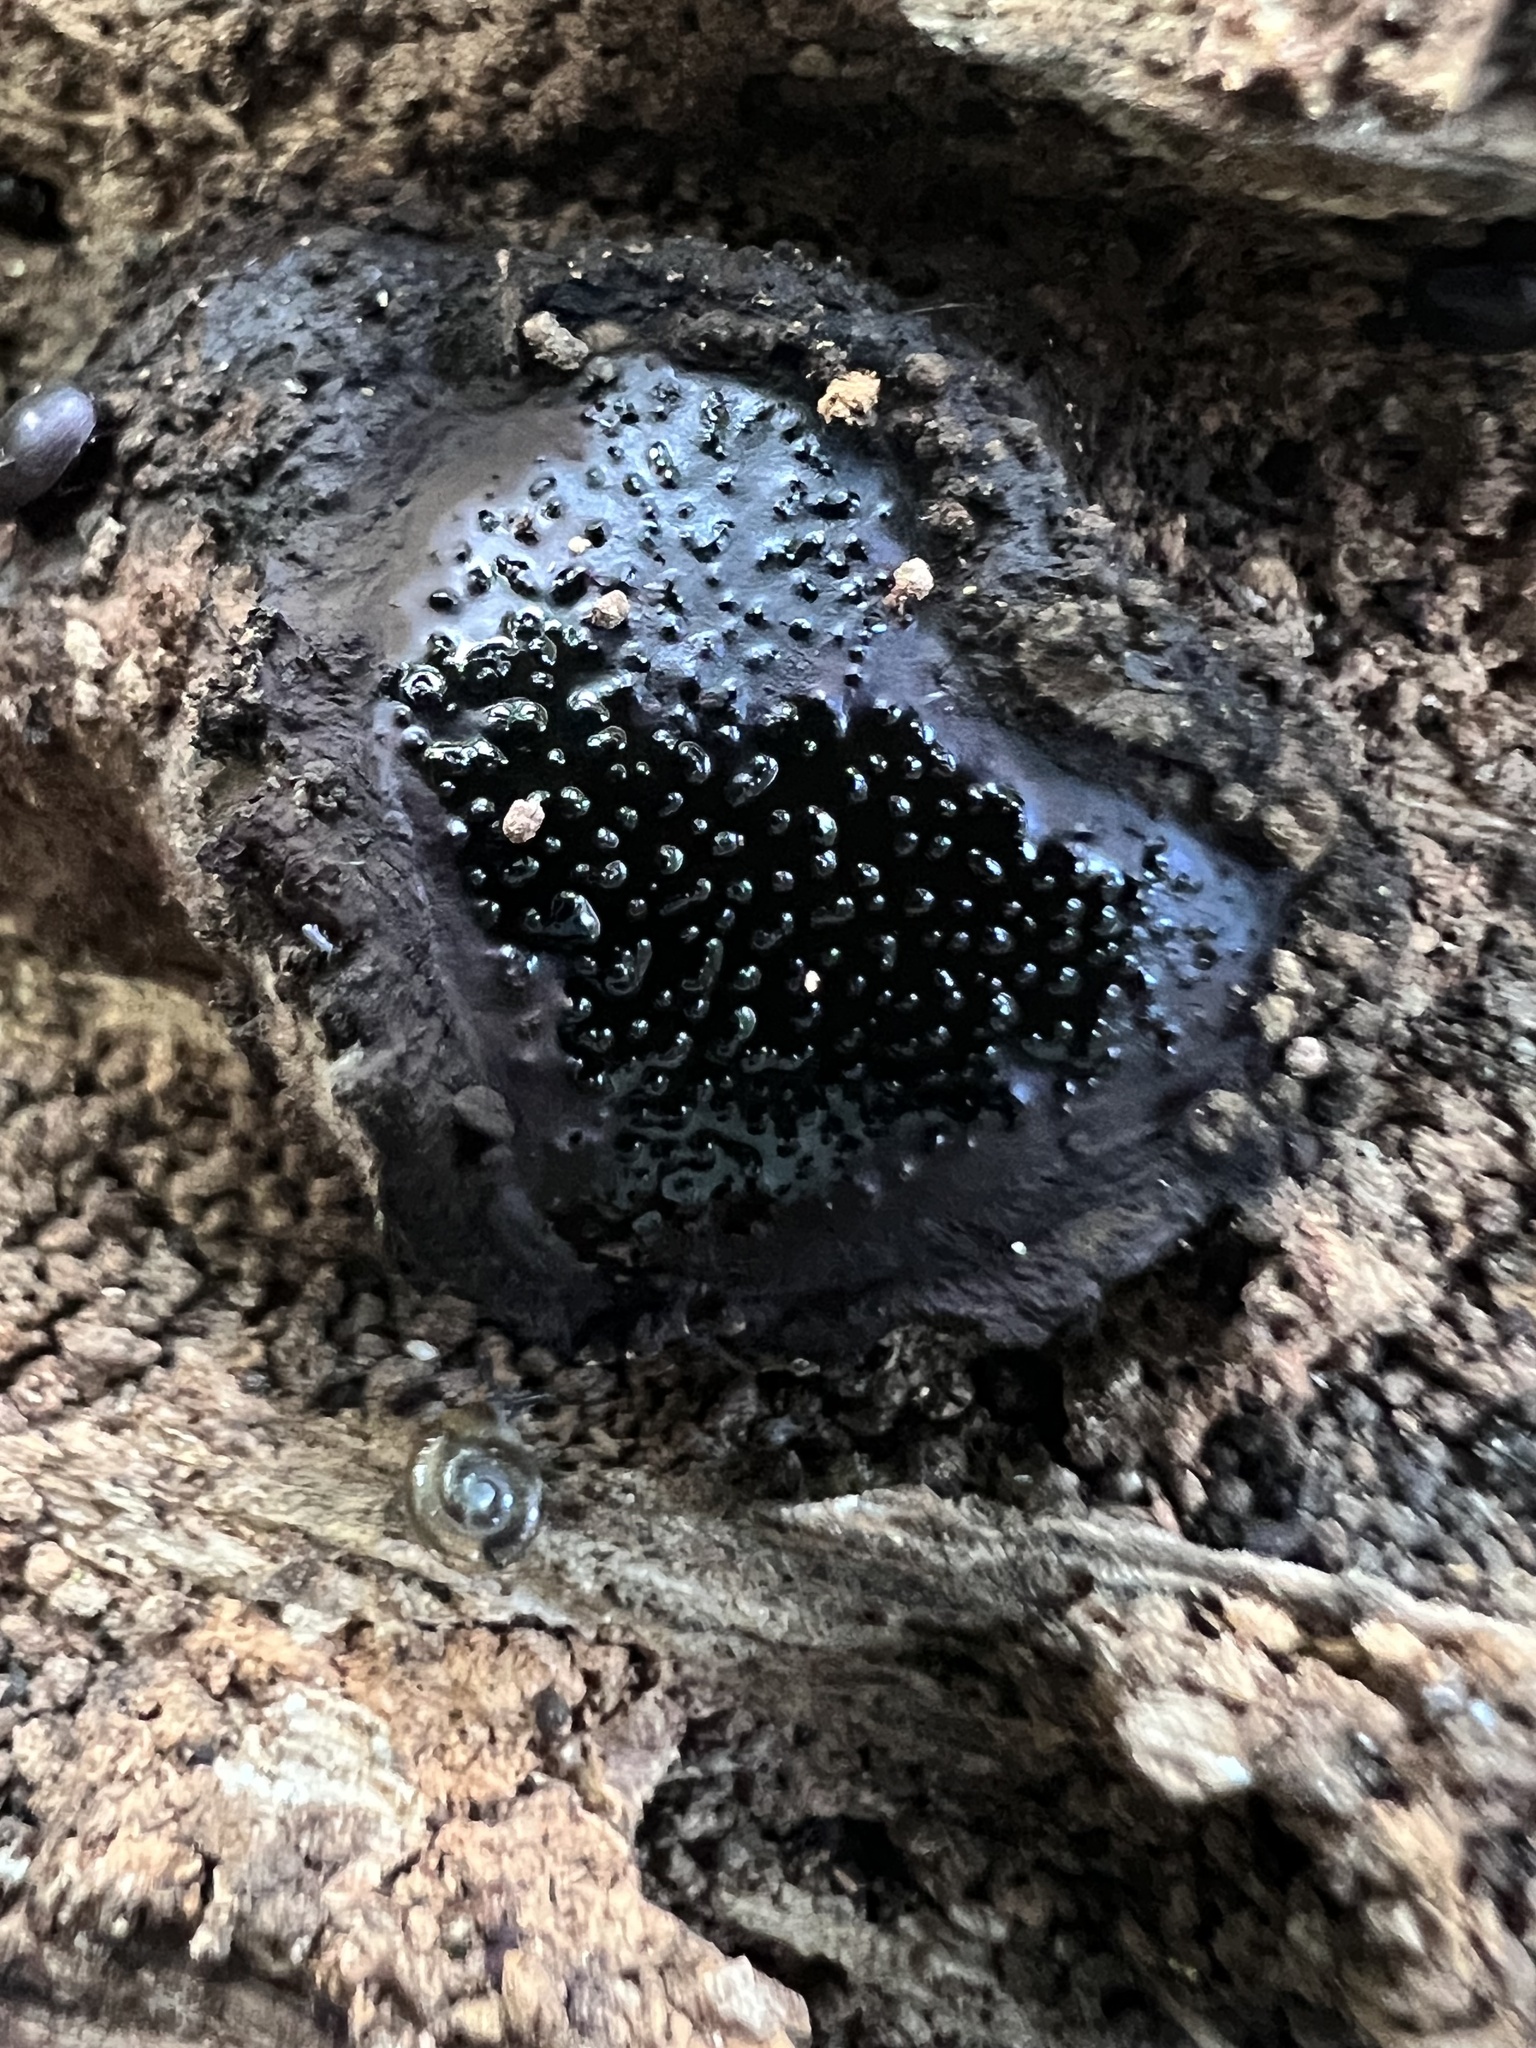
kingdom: Fungi
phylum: Ascomycota
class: Sordariomycetes
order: Boliniales
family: Boliniaceae
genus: Camarops
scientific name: Camarops petersii
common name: Dog's nose fungus
